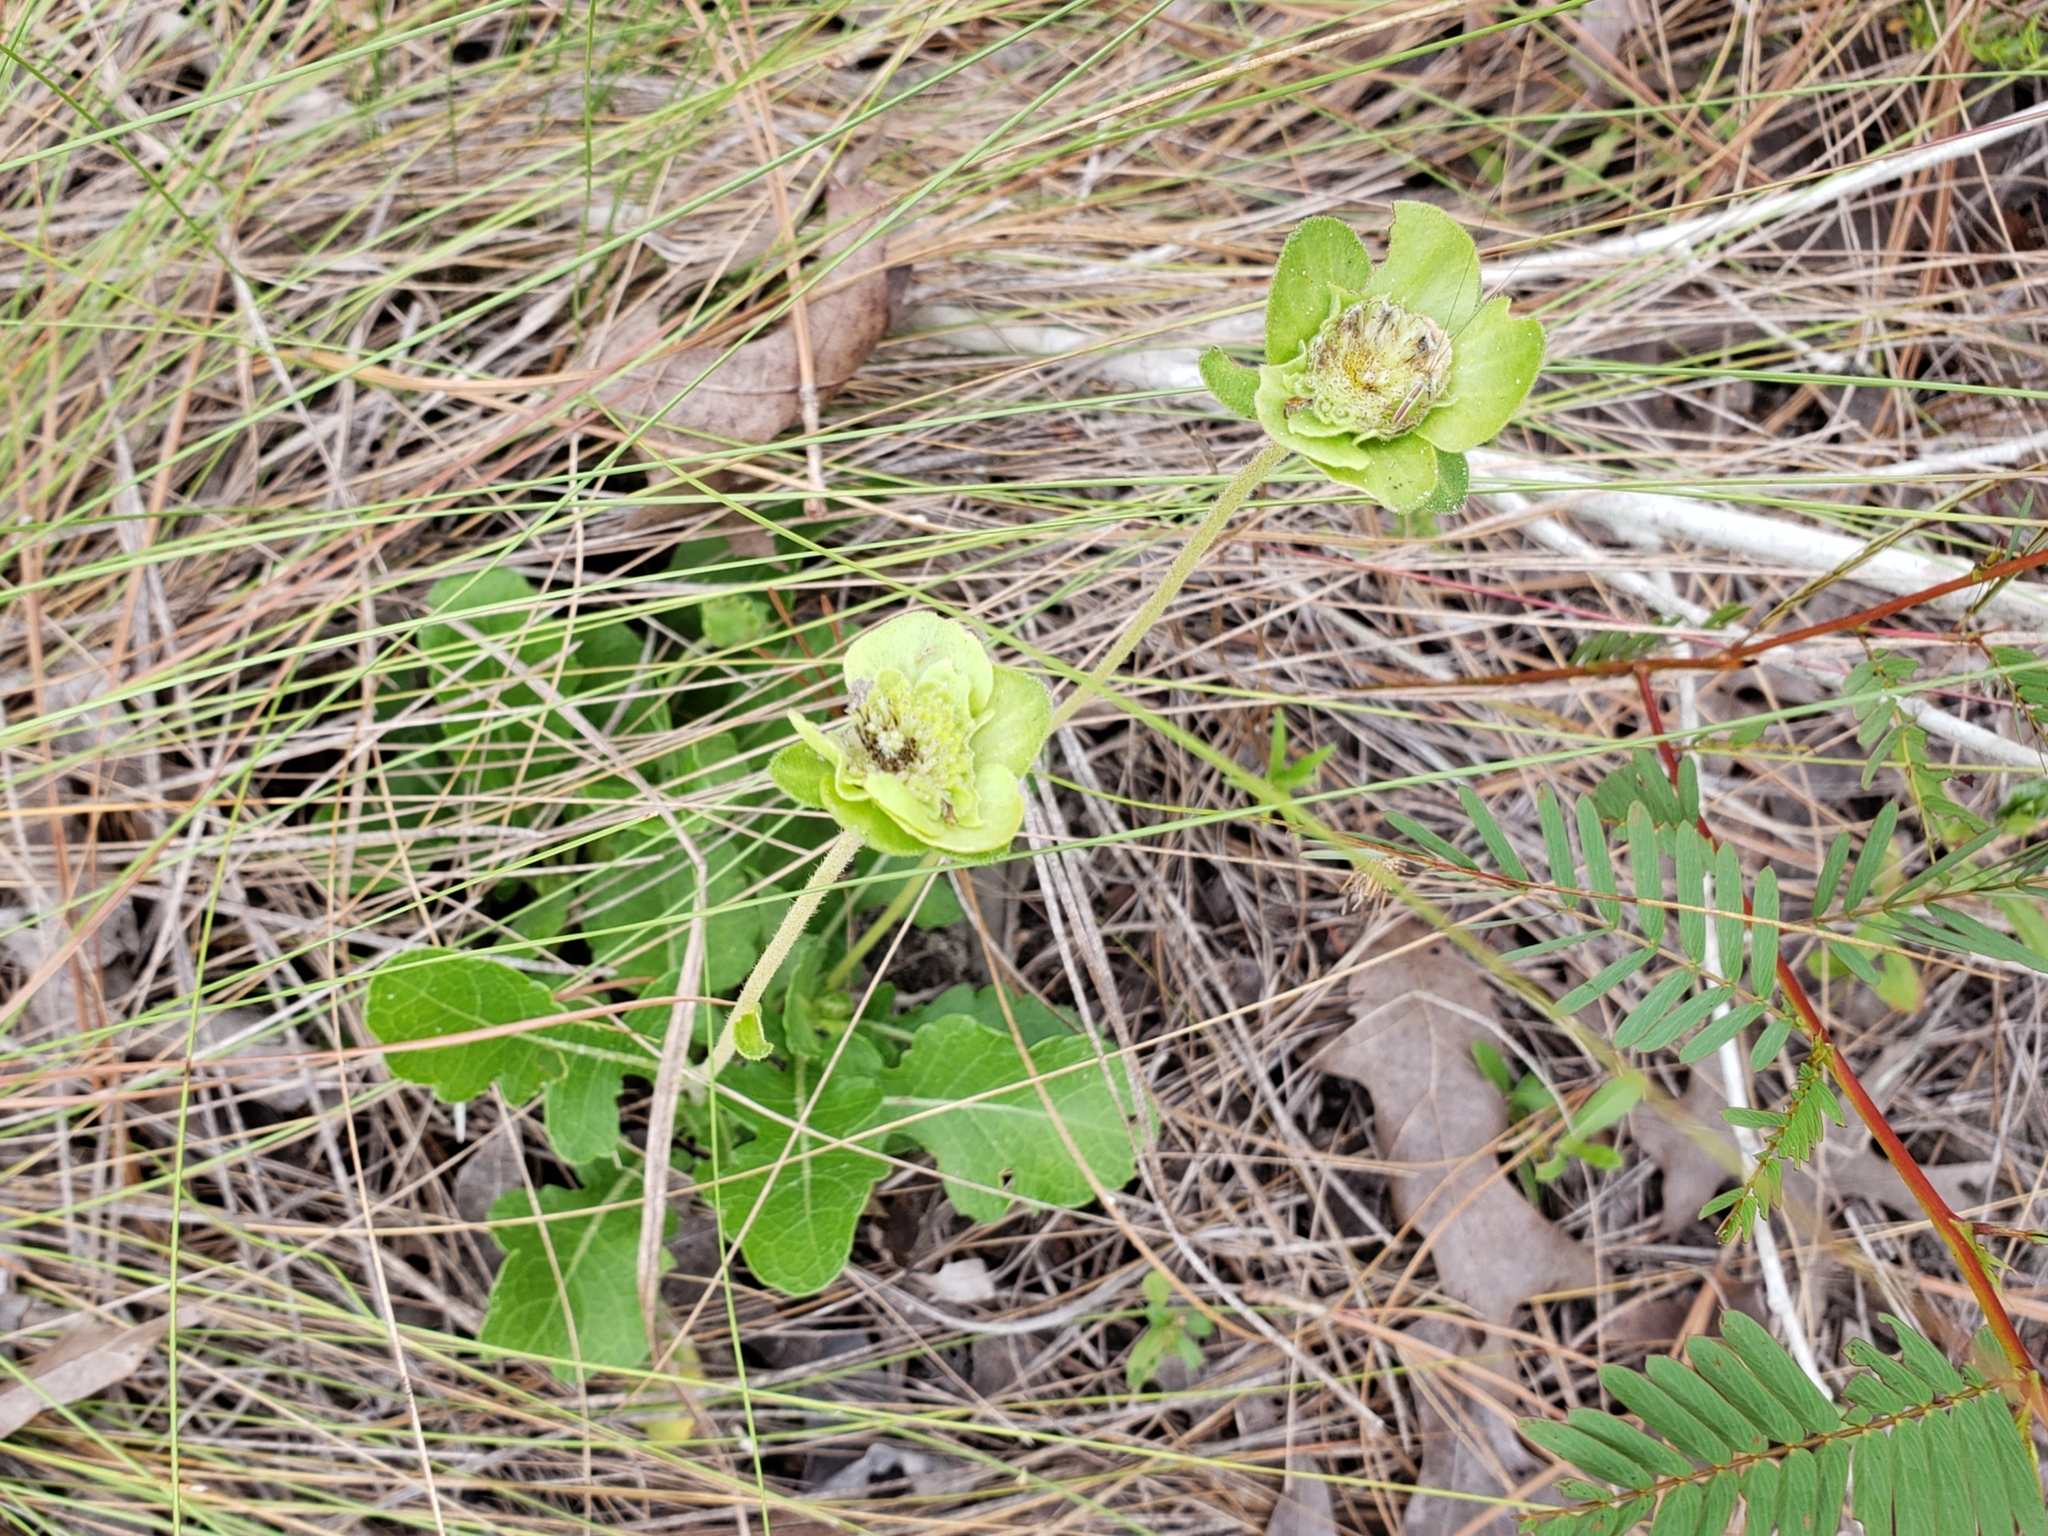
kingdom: Plantae
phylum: Tracheophyta
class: Magnoliopsida
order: Asterales
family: Asteraceae
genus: Berlandiera
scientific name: Berlandiera subacaulis
